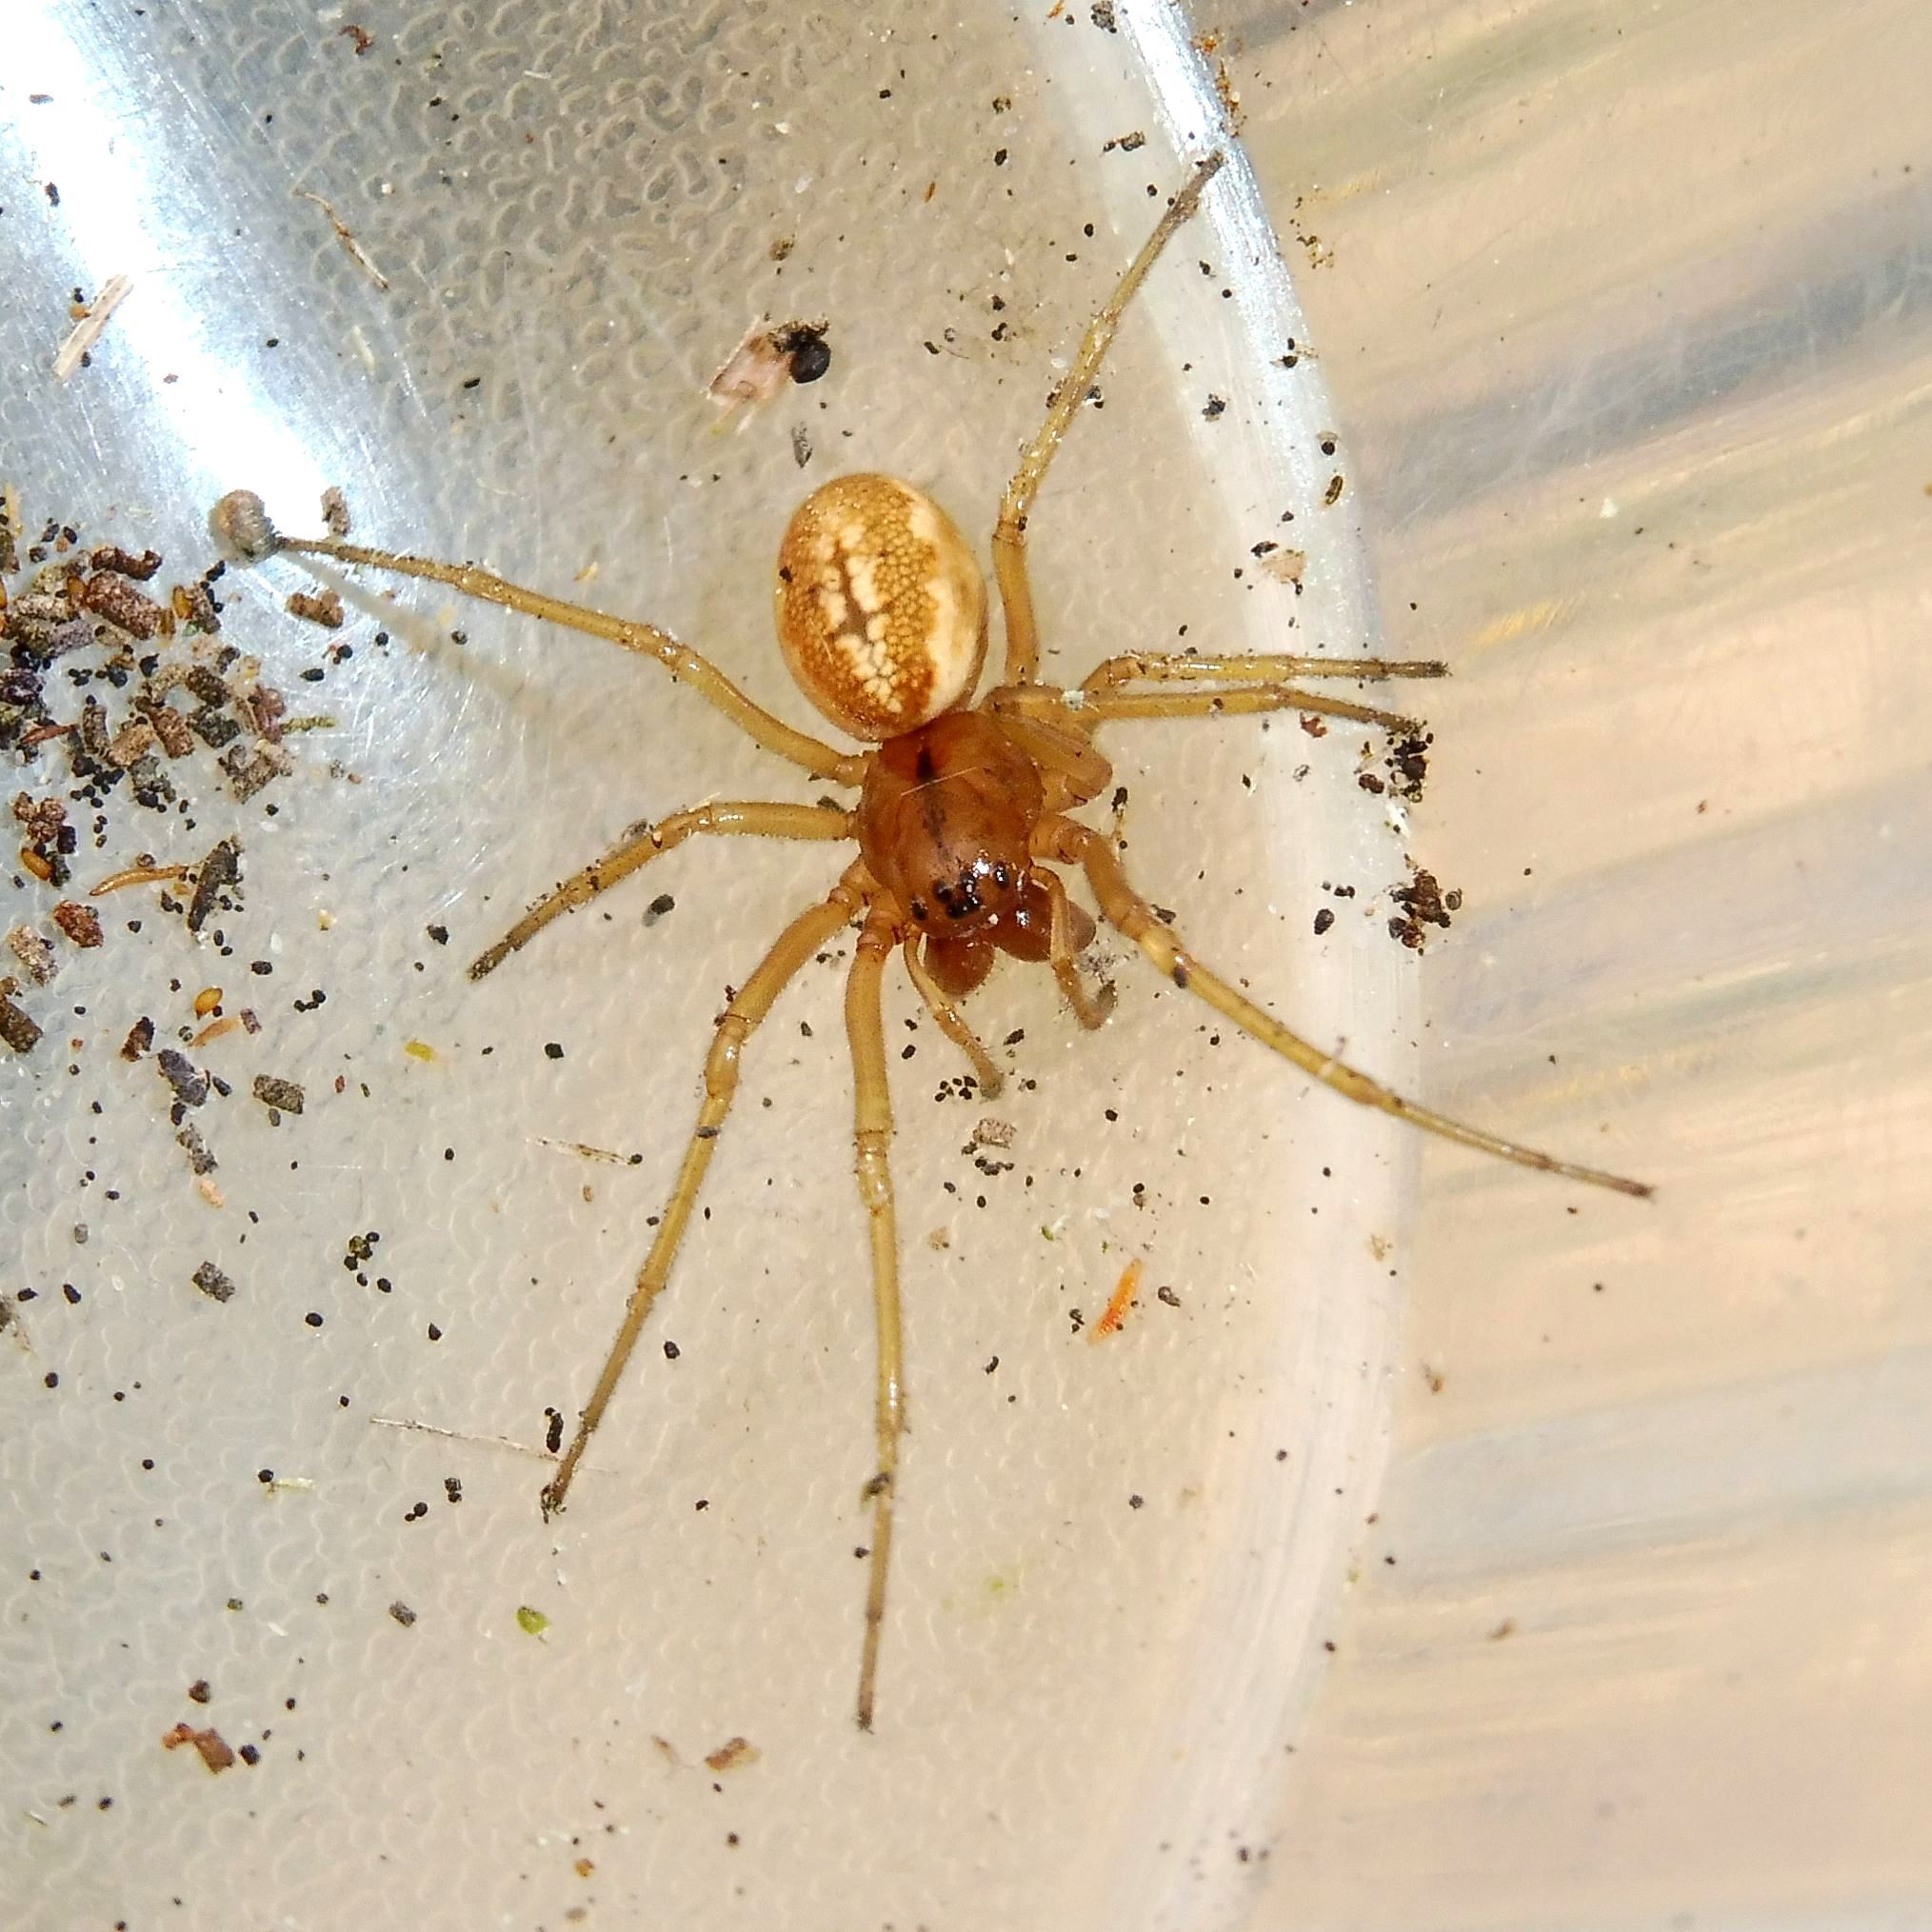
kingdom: Animalia
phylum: Arthropoda
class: Arachnida
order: Araneae
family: Tetragnathidae
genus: Pachygnatha
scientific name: Pachygnatha clercki
